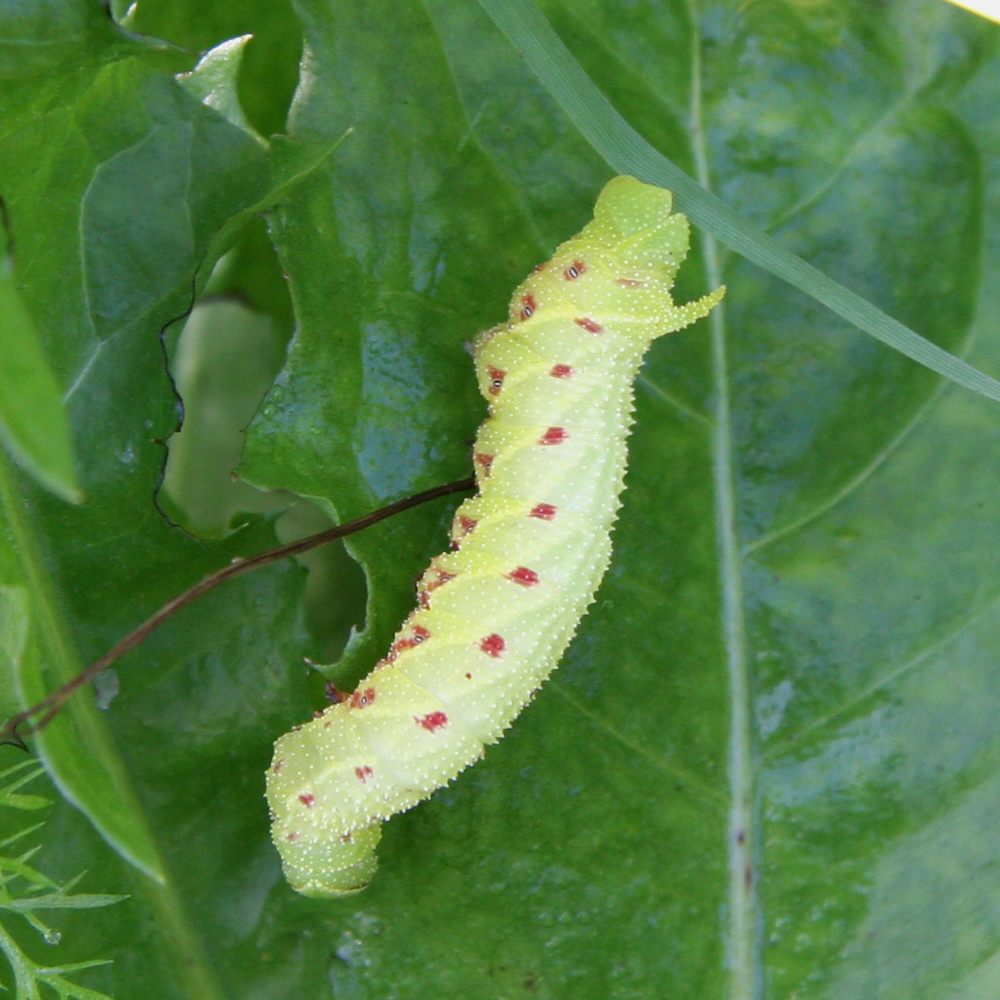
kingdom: Animalia
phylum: Arthropoda
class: Insecta
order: Lepidoptera
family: Sphingidae
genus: Paonias
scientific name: Paonias myops
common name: Small-eyed sphinx
